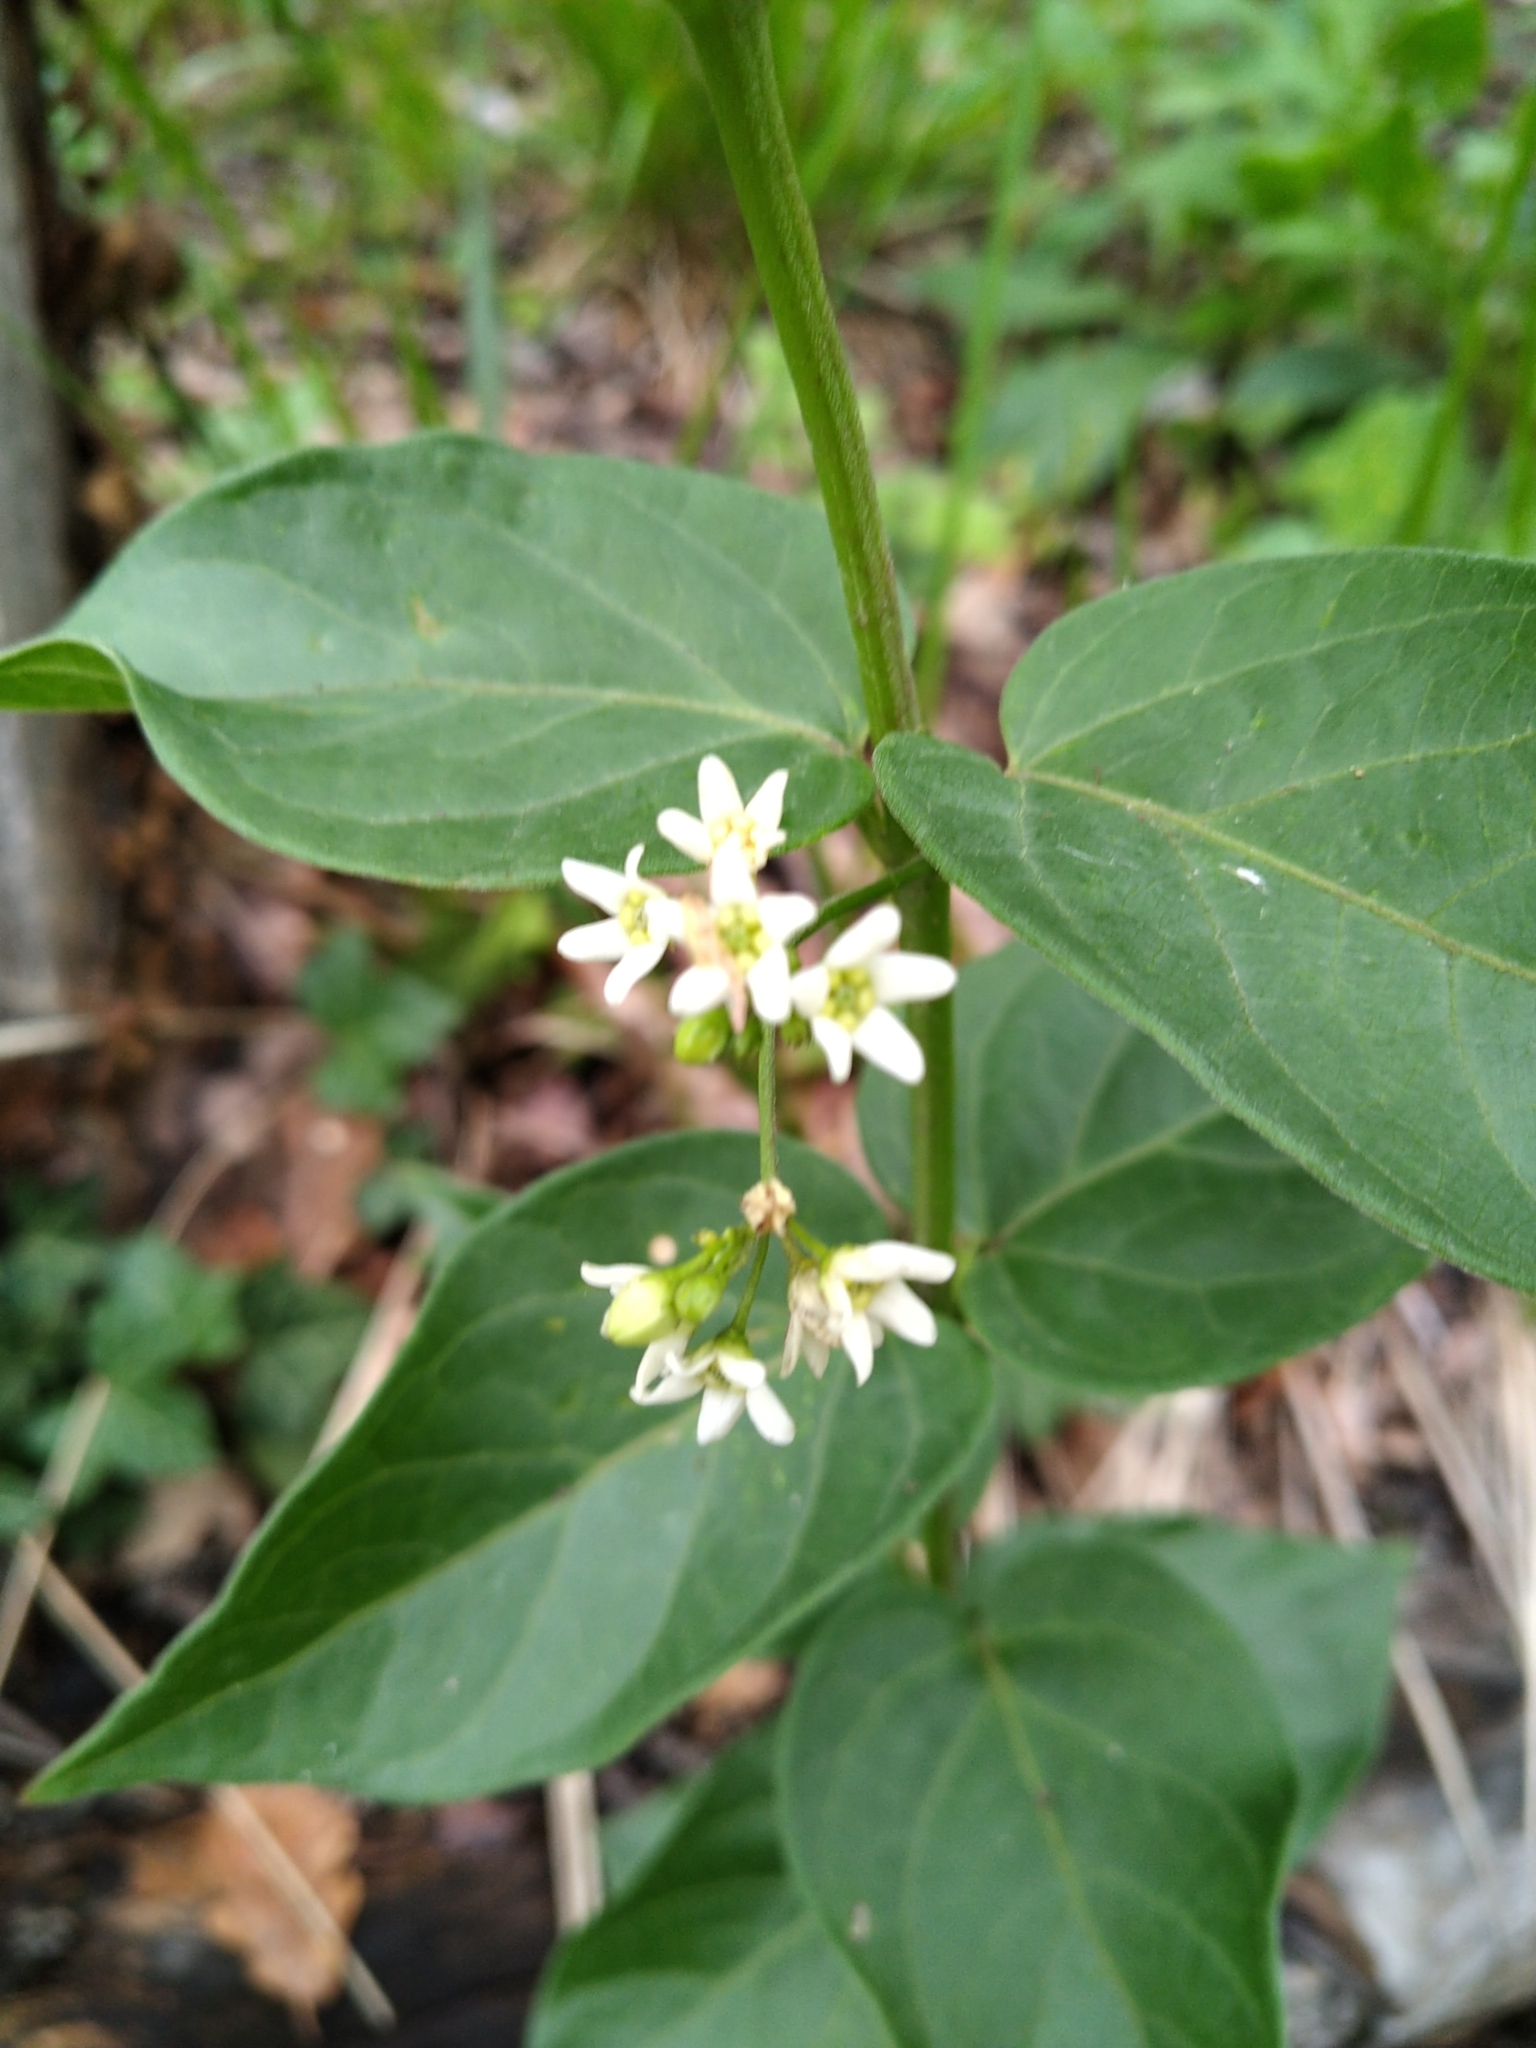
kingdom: Plantae
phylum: Tracheophyta
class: Magnoliopsida
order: Gentianales
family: Apocynaceae
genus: Vincetoxicum
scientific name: Vincetoxicum hirundinaria
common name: White swallowwort
